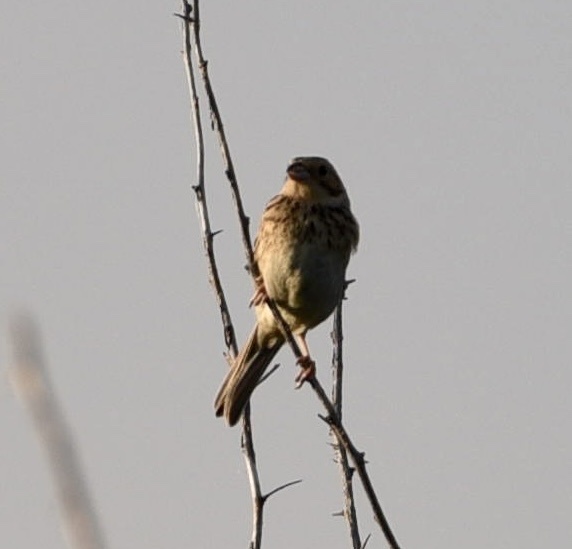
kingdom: Animalia
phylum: Chordata
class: Aves
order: Passeriformes
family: Emberizidae
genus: Emberiza
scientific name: Emberiza calandra
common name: Corn bunting
